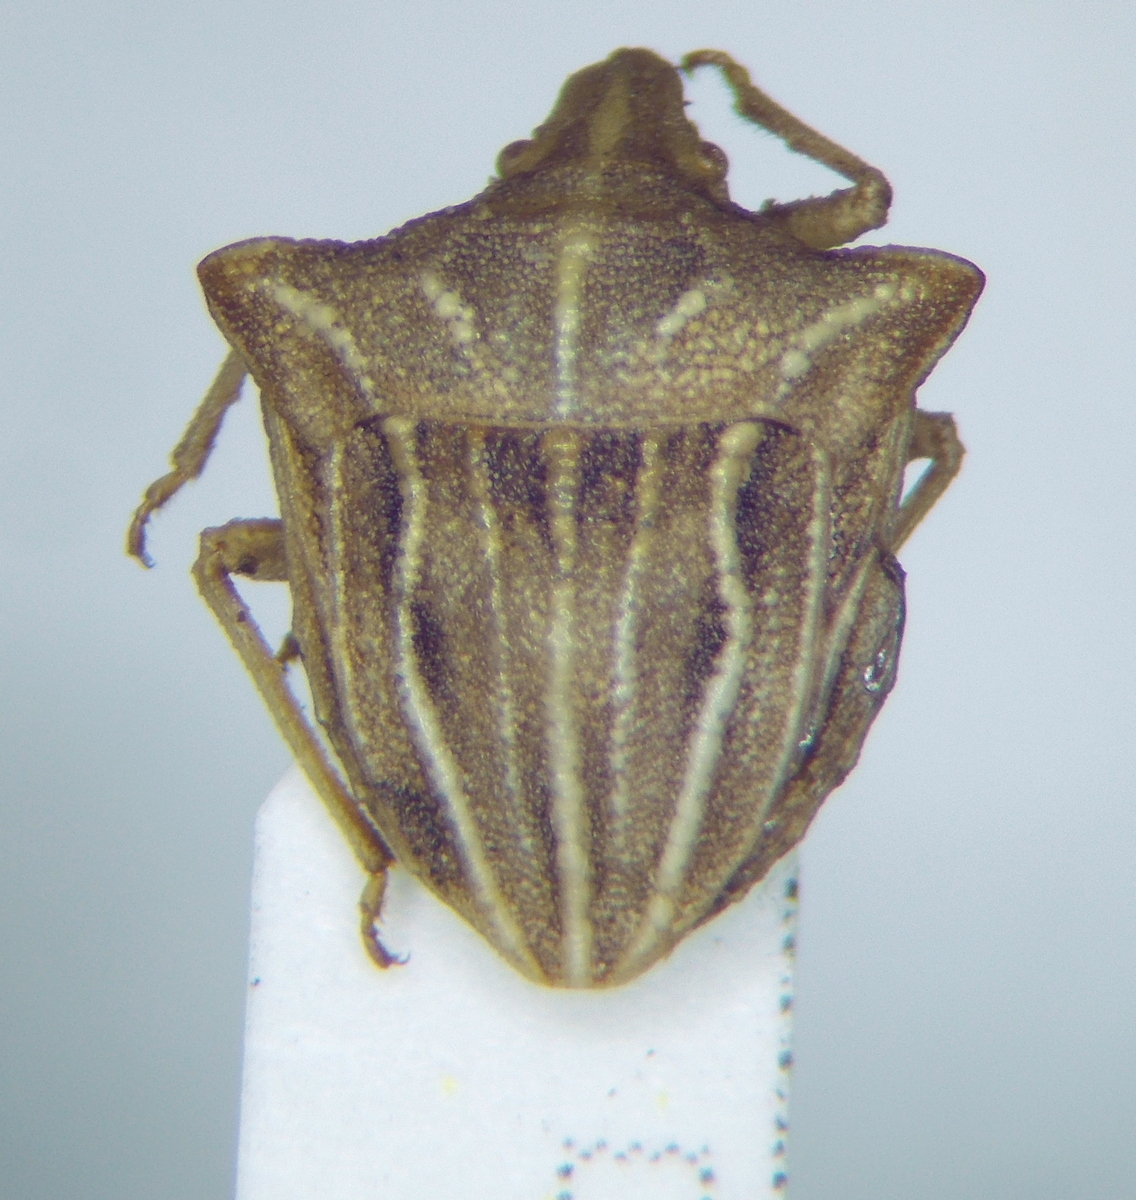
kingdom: Animalia
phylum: Arthropoda
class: Insecta
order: Hemiptera
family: Pentatomidae
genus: Ancyrosoma
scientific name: Ancyrosoma leucogrammes
